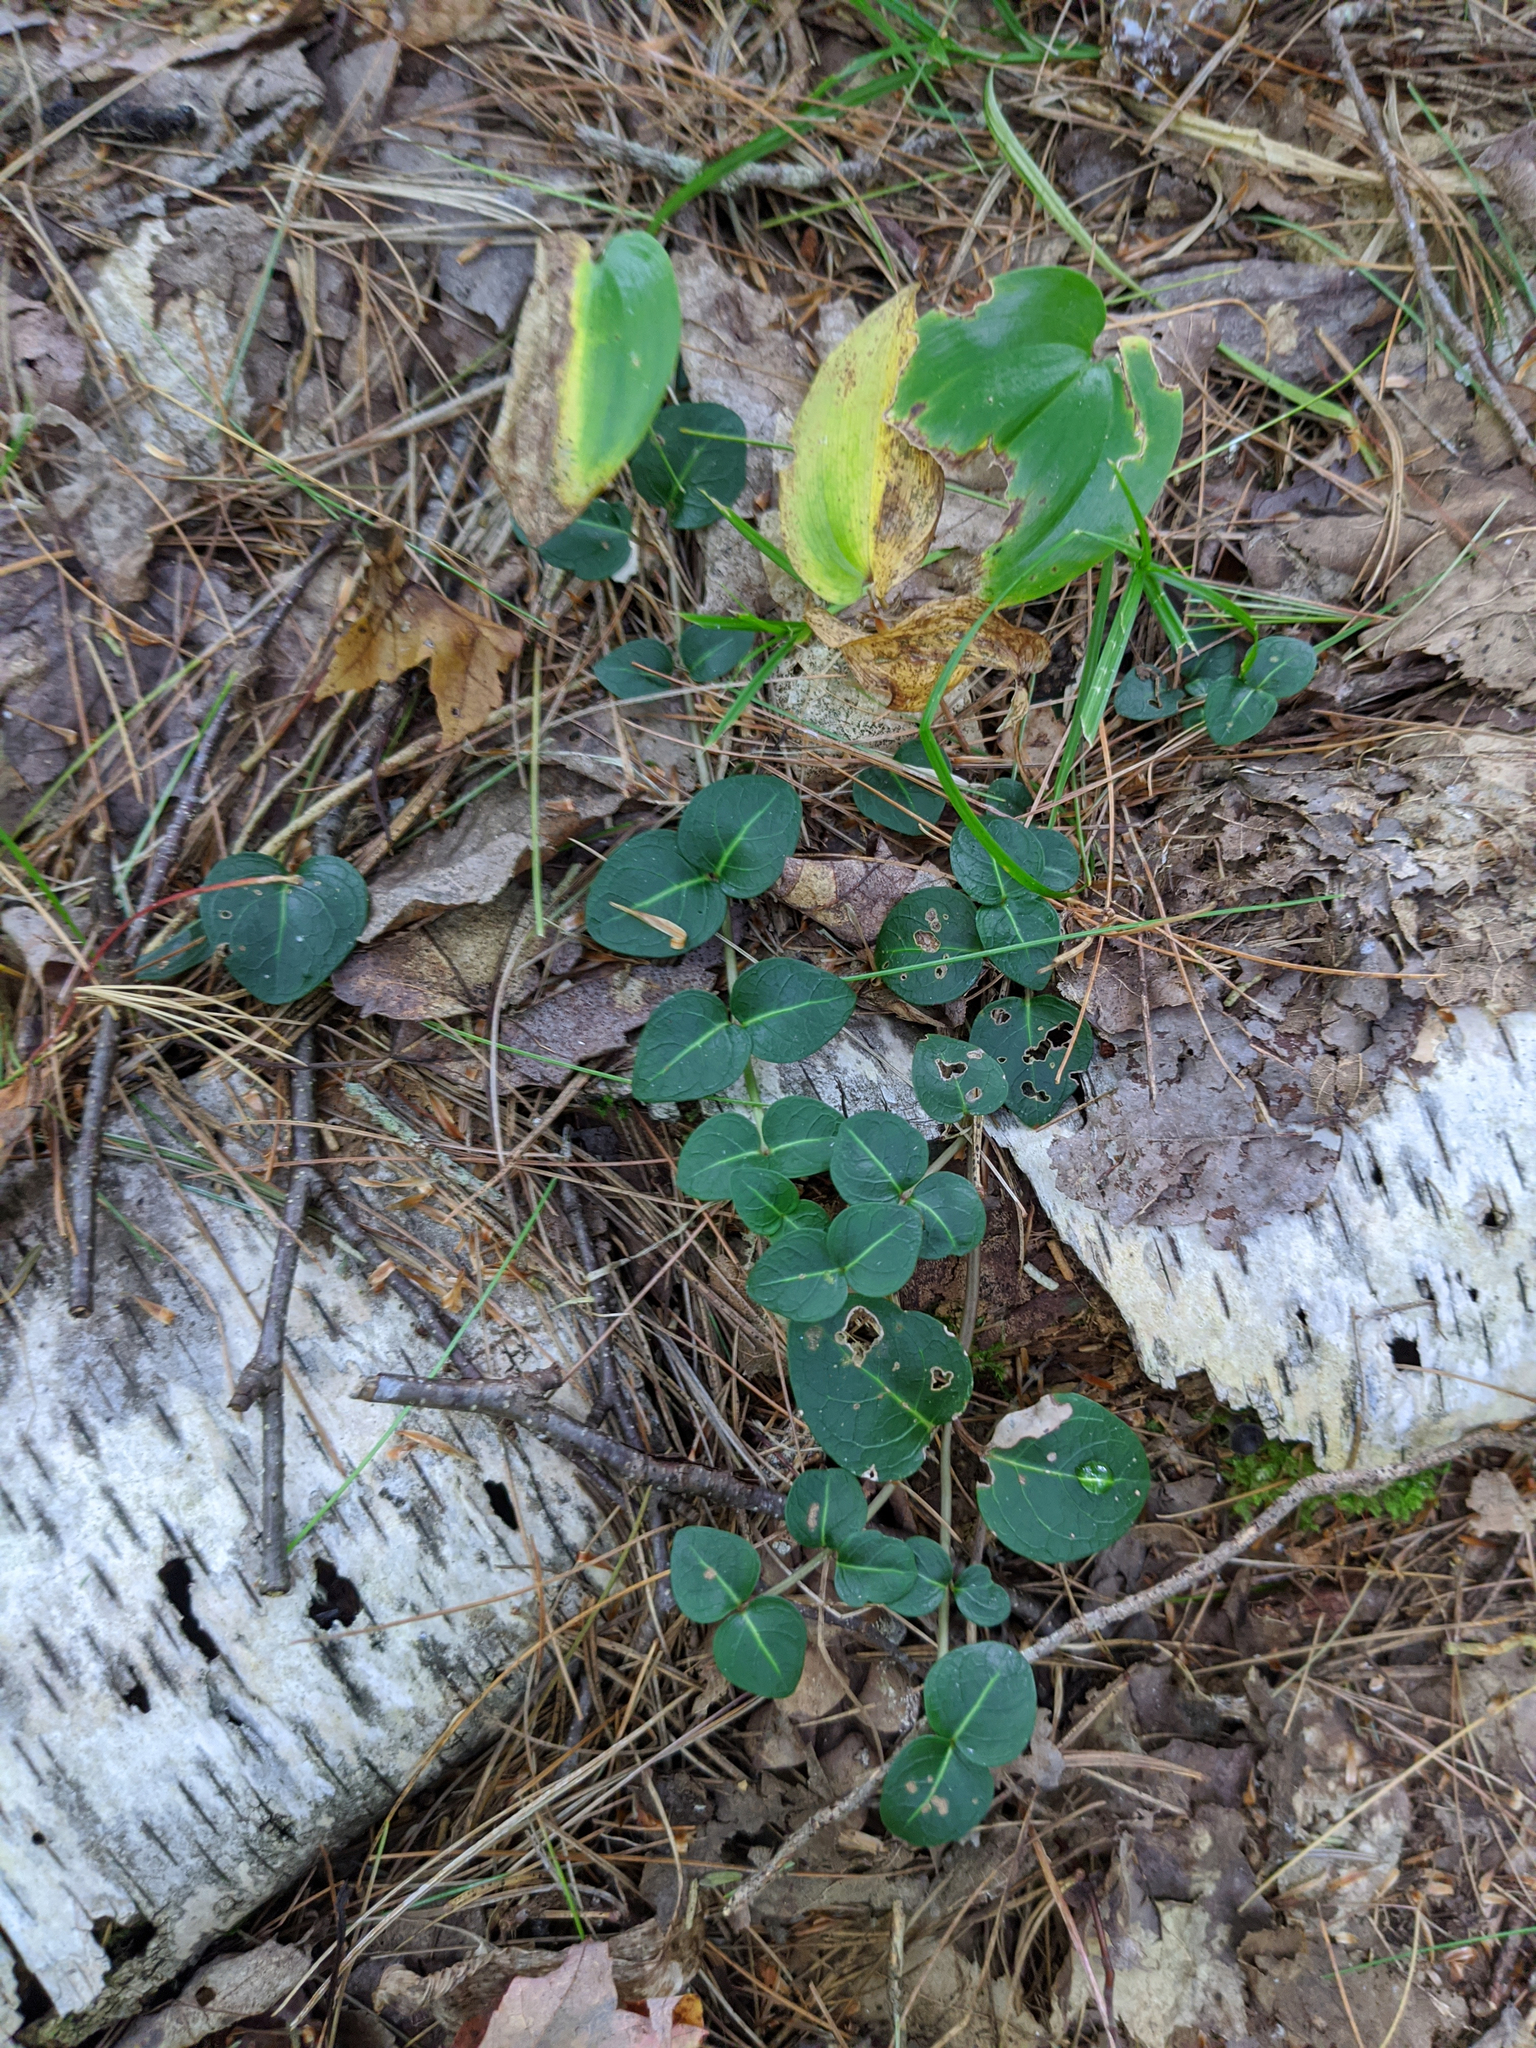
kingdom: Plantae
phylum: Tracheophyta
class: Liliopsida
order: Asparagales
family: Asparagaceae
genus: Maianthemum
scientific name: Maianthemum canadense
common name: False lily-of-the-valley
